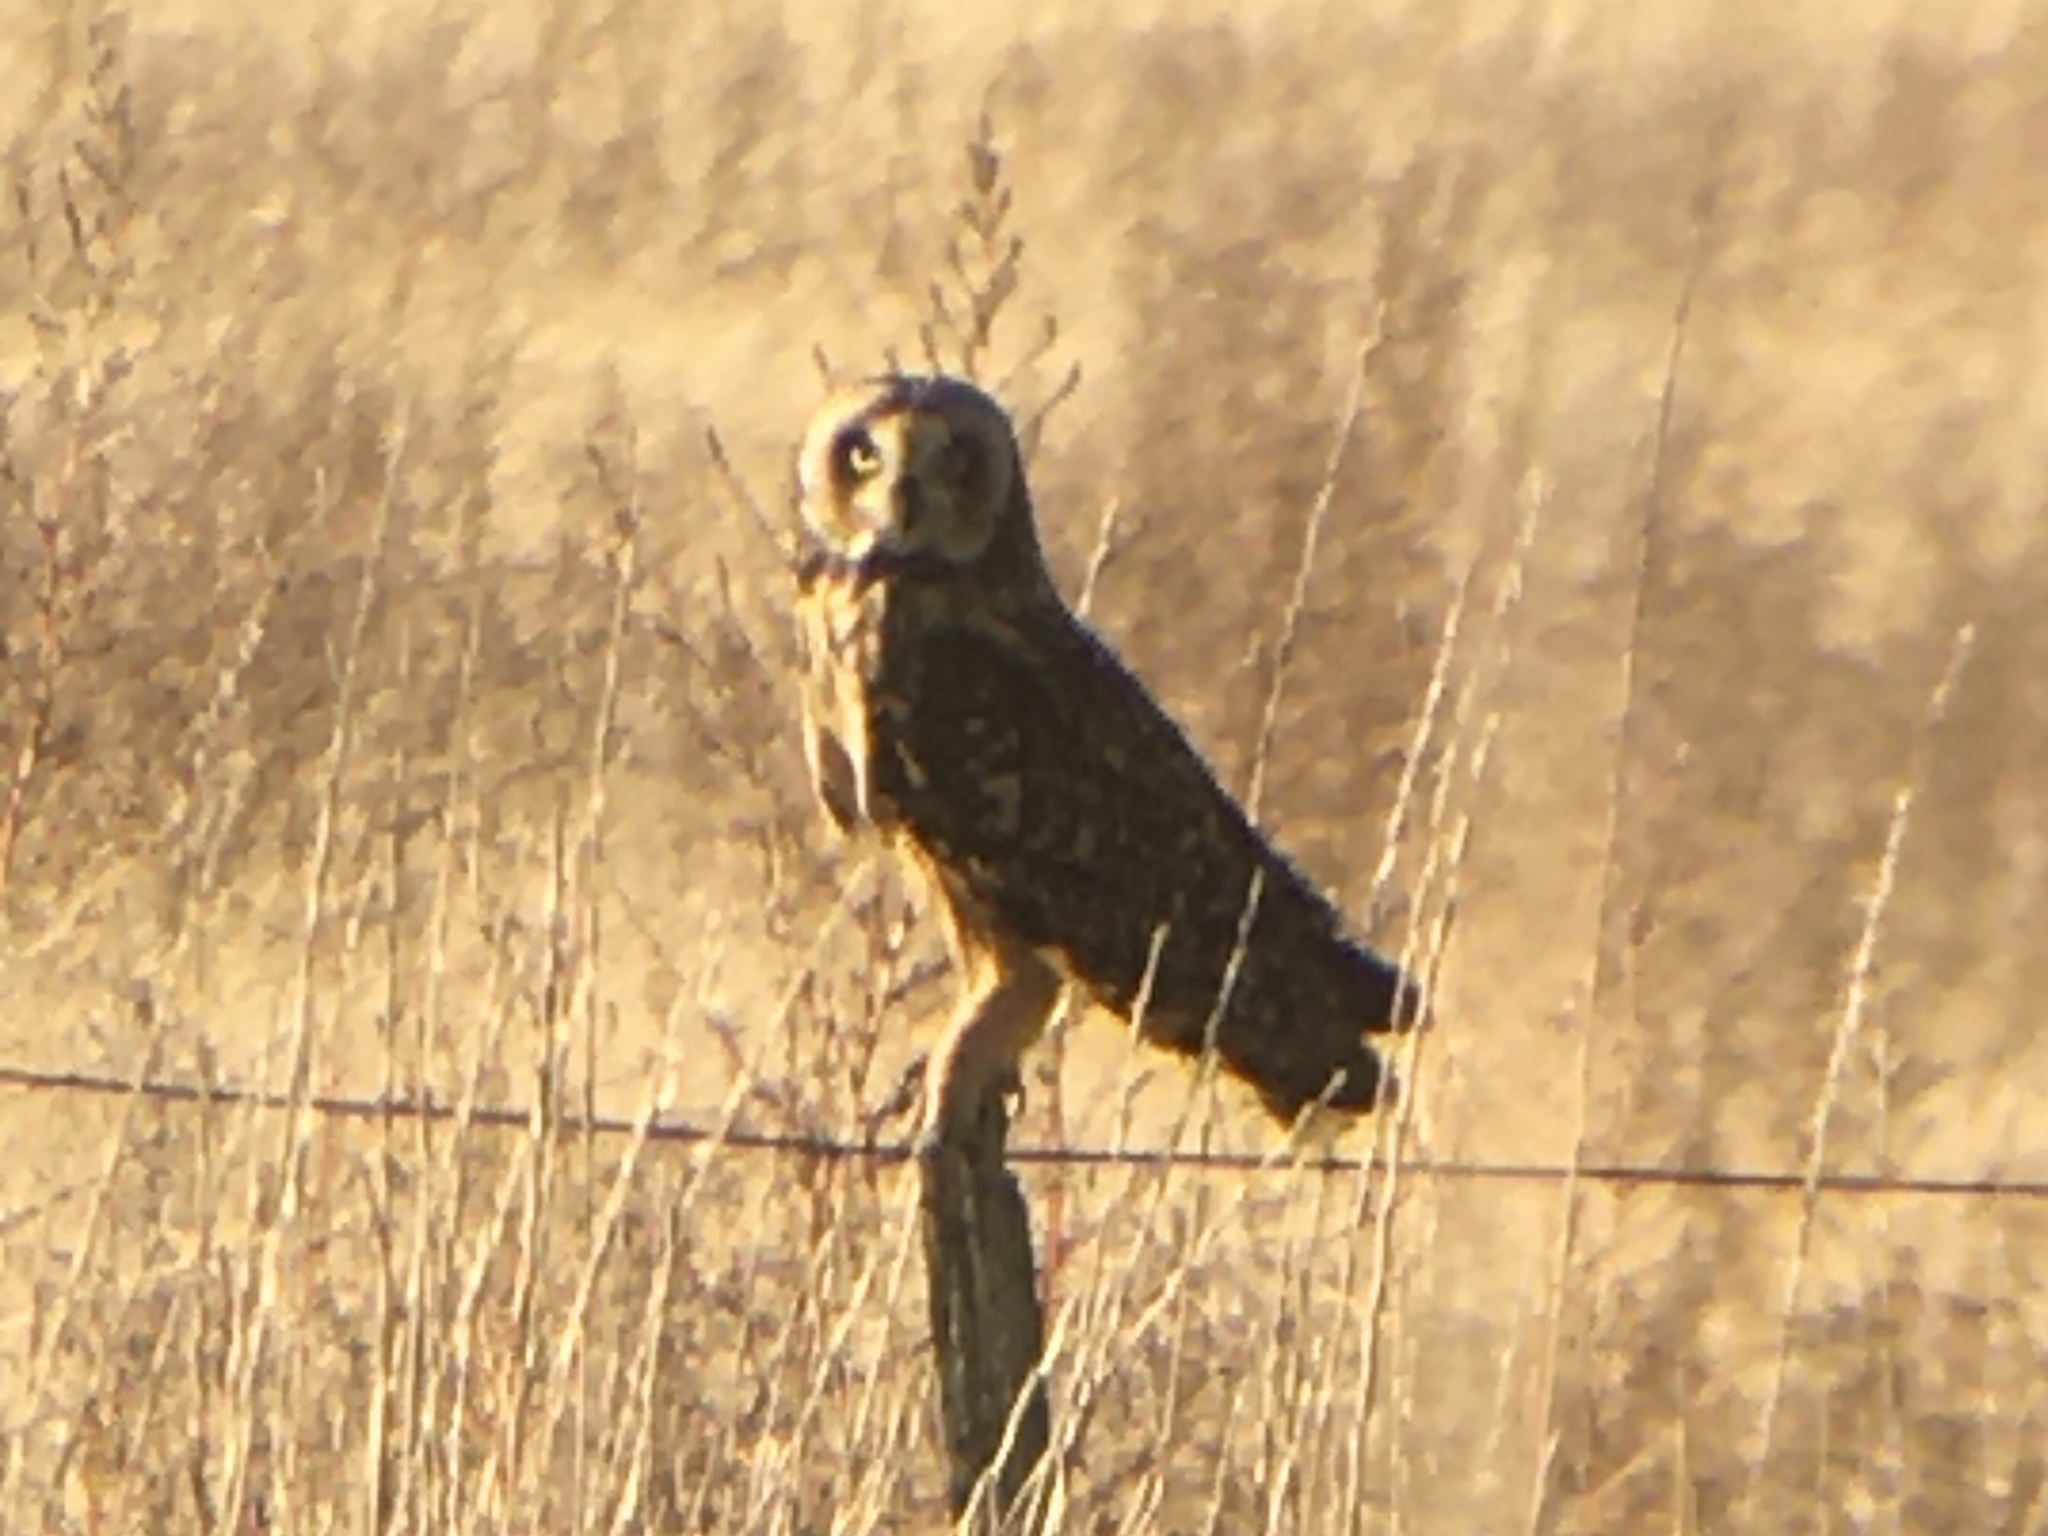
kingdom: Animalia
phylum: Chordata
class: Aves
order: Strigiformes
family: Strigidae
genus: Asio
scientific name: Asio flammeus
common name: Short-eared owl
